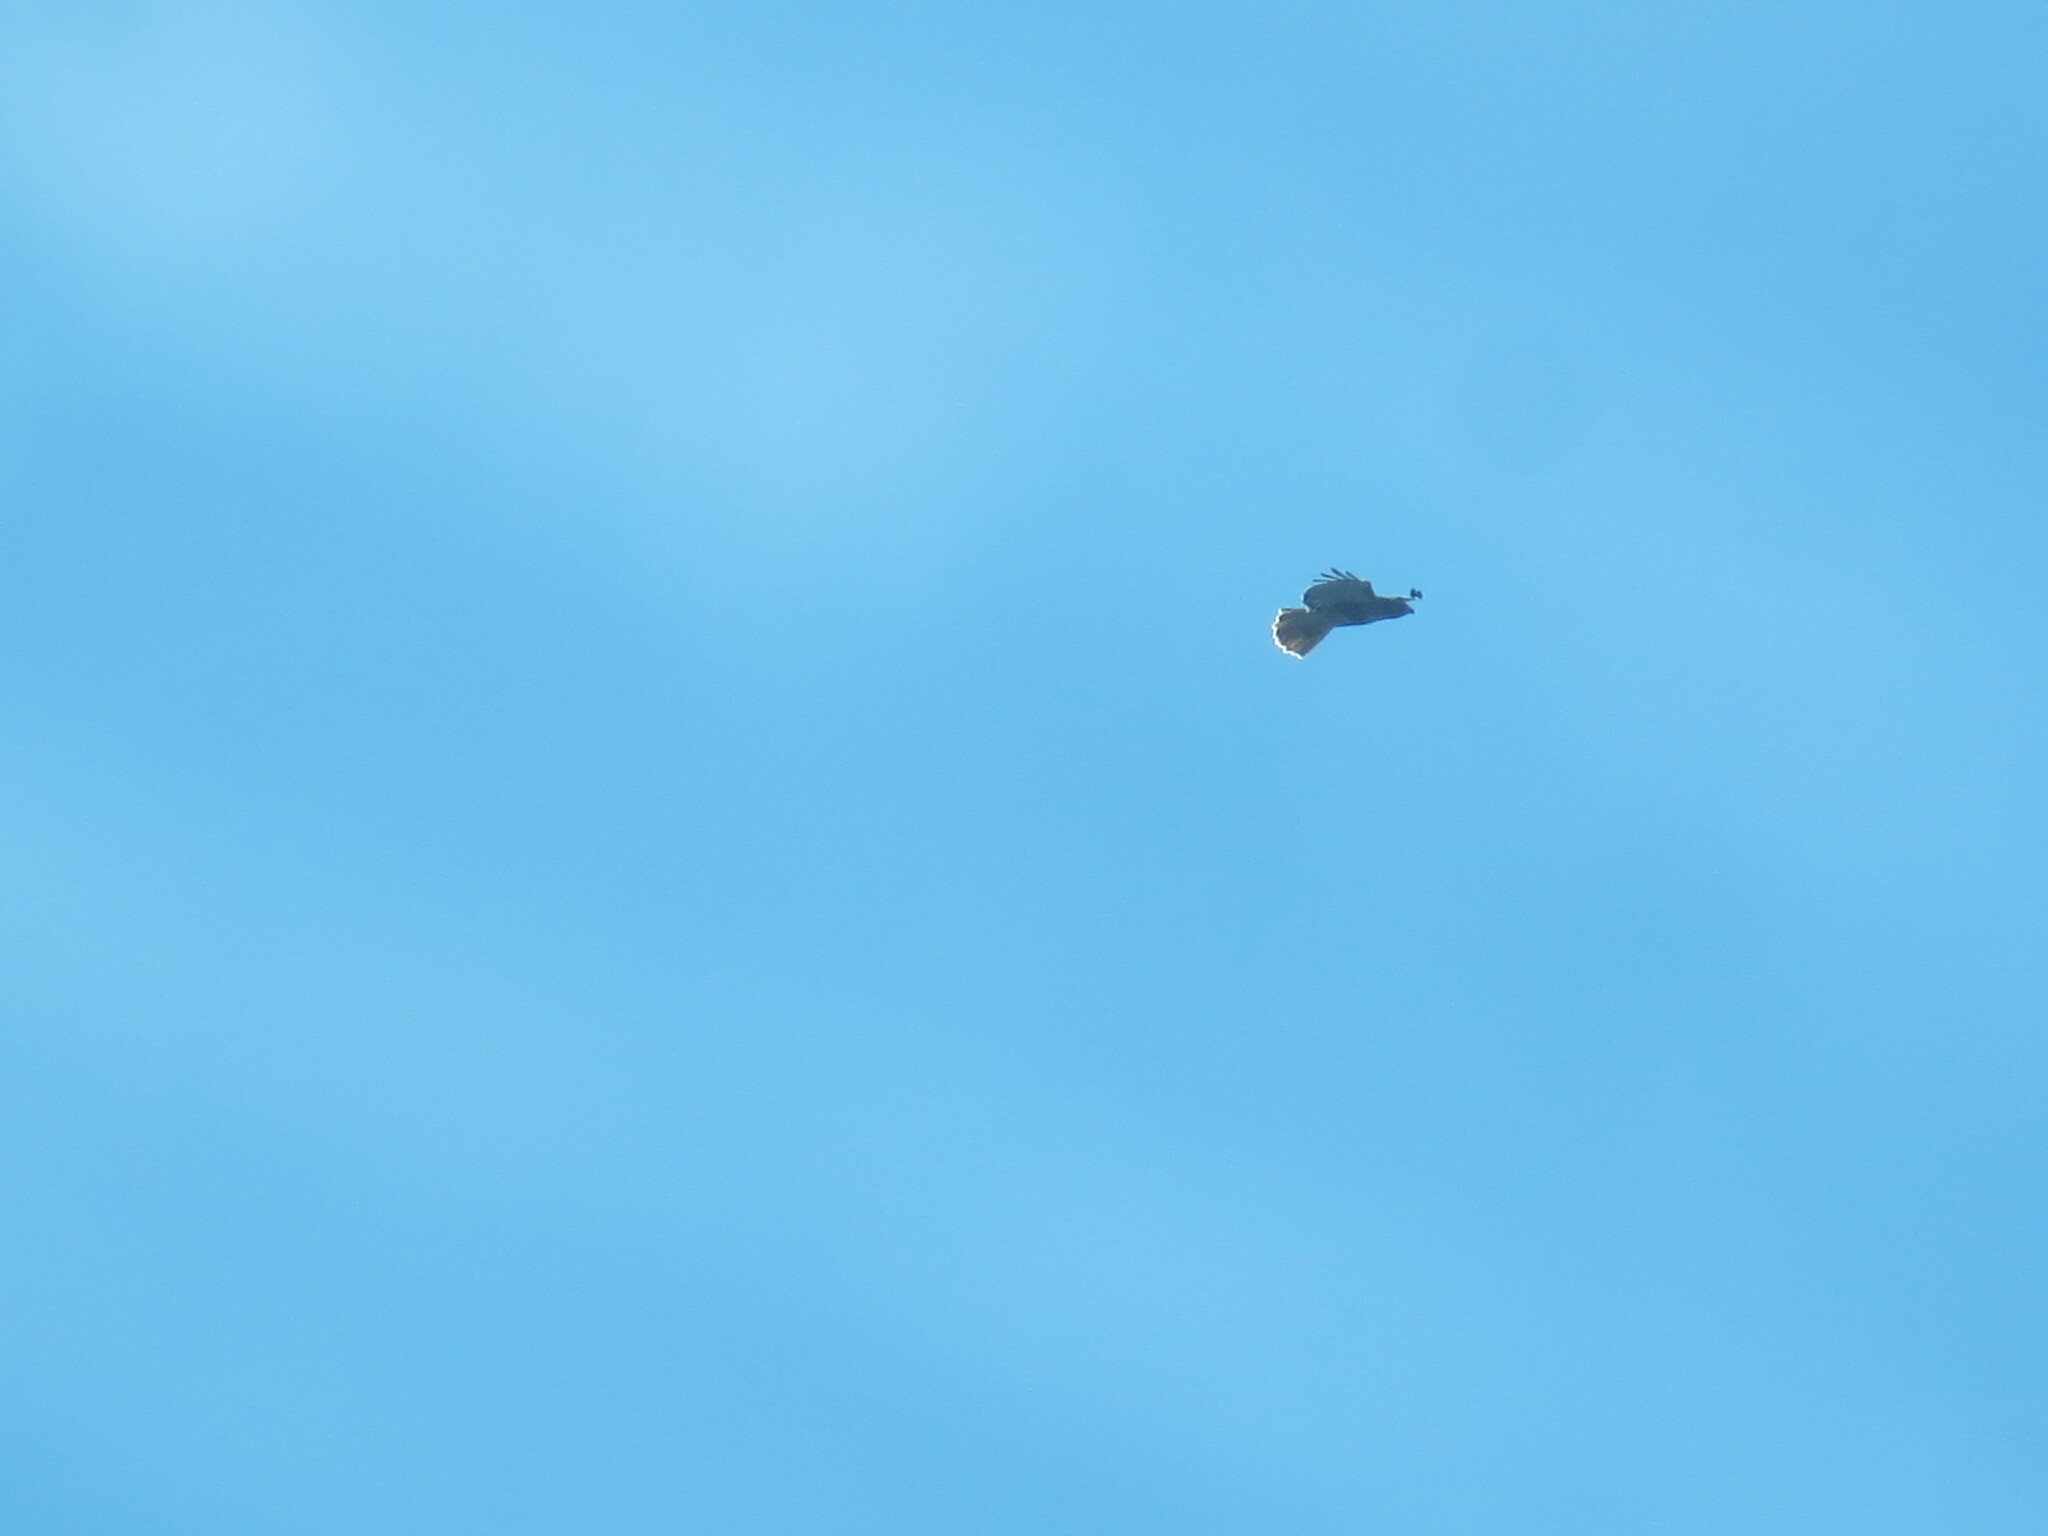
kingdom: Animalia
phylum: Chordata
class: Aves
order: Accipitriformes
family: Accipitridae
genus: Buteo
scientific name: Buteo jamaicensis
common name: Red-tailed hawk
